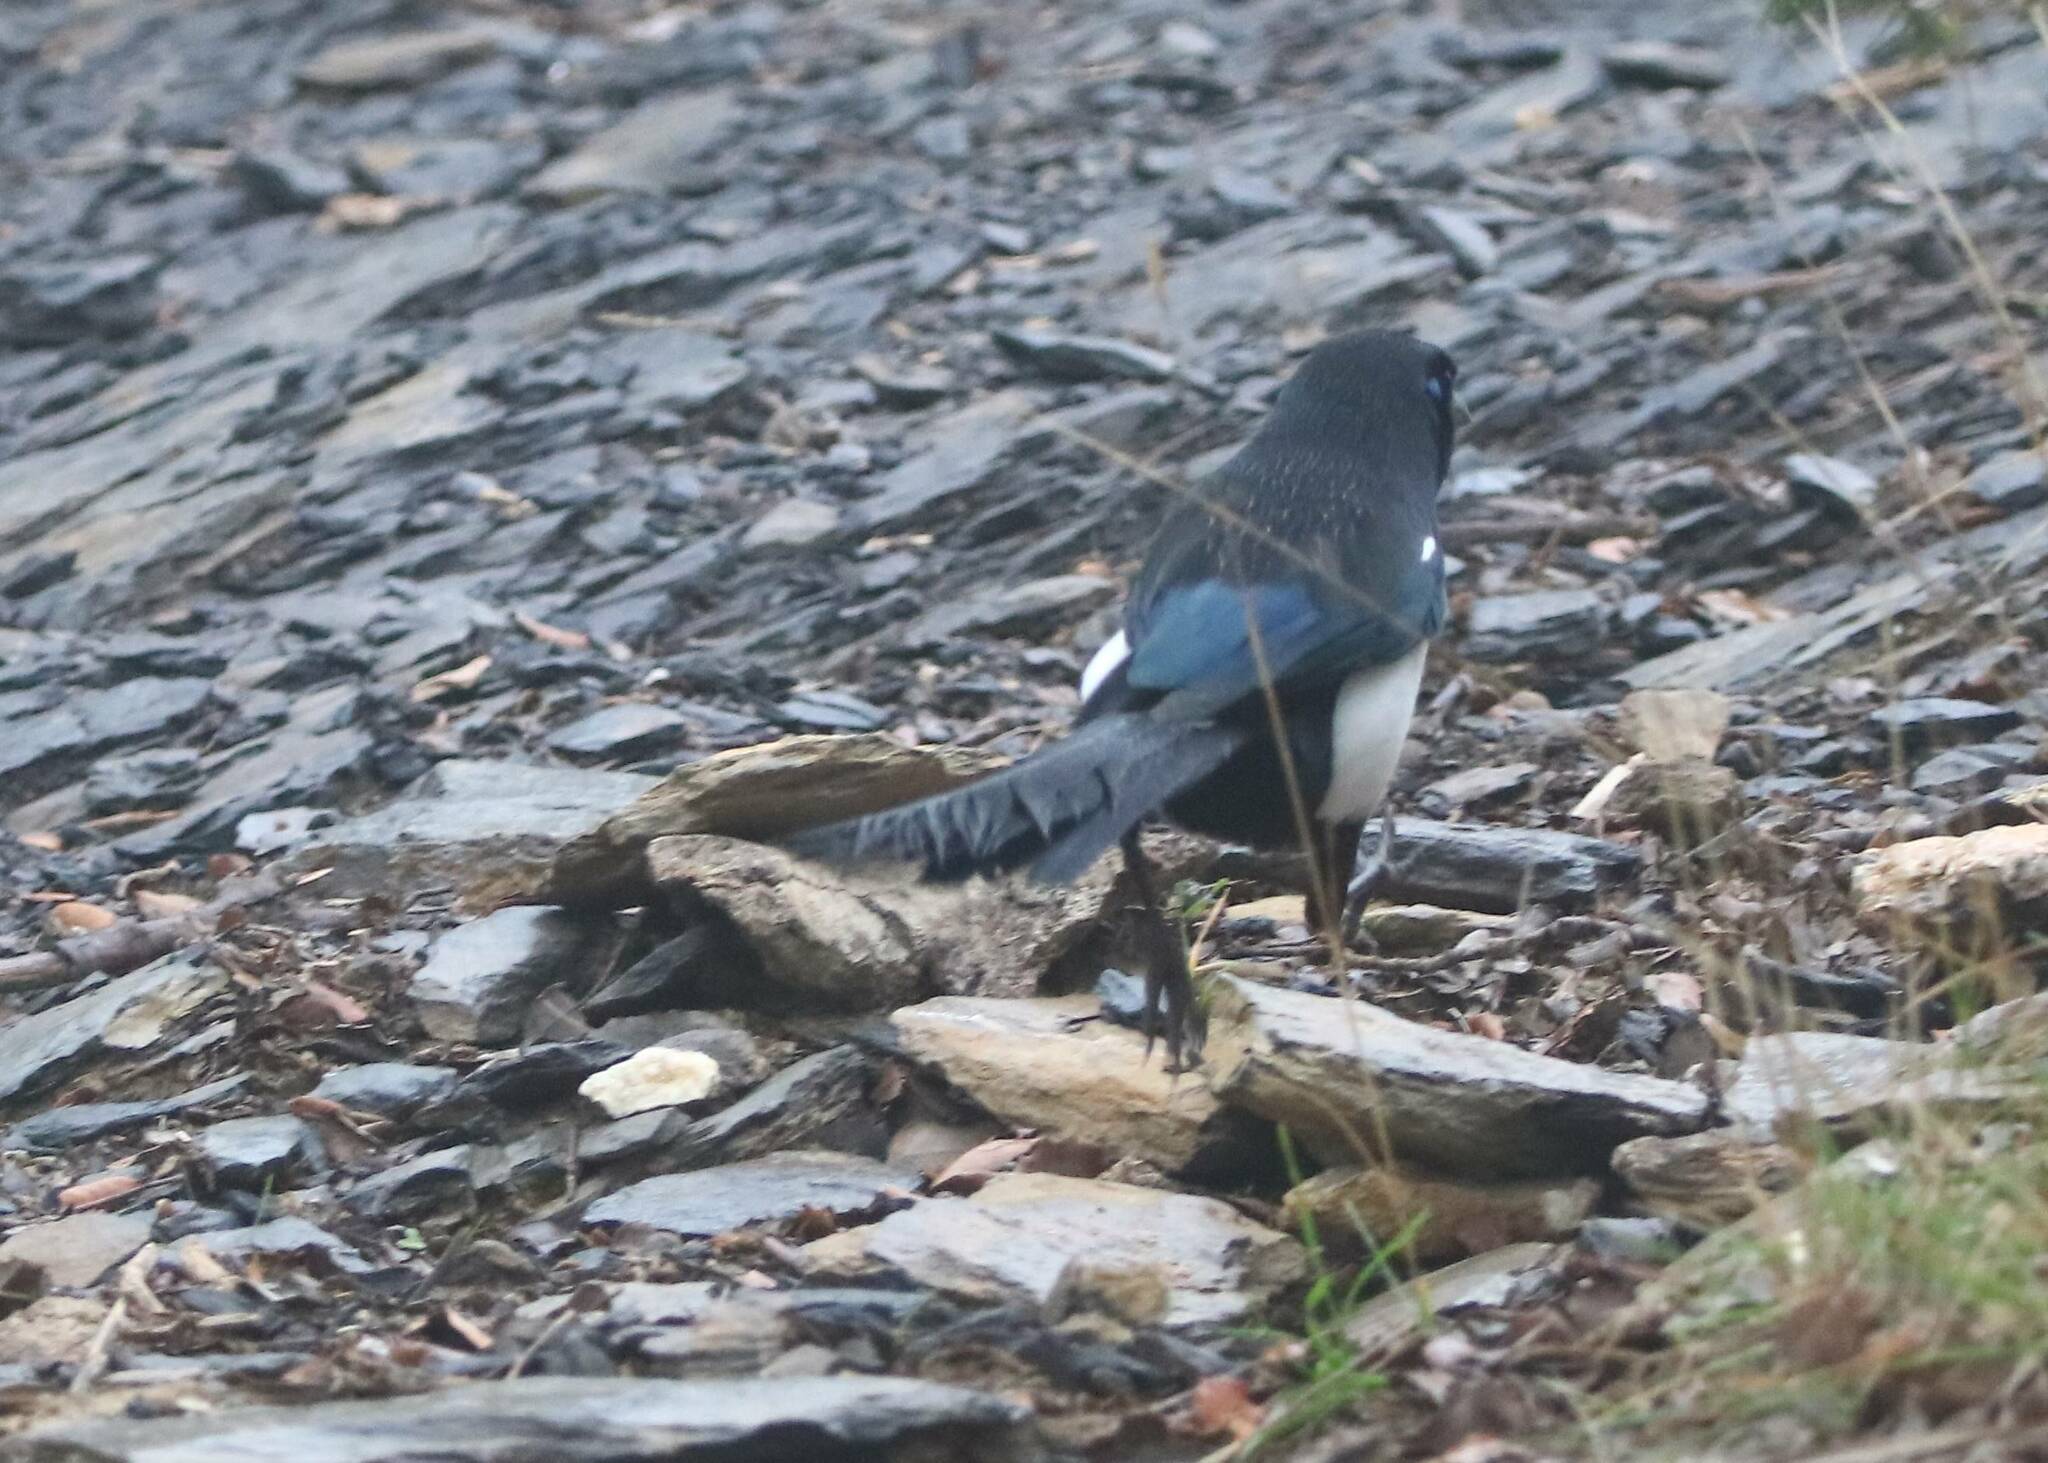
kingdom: Animalia
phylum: Chordata
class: Aves
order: Passeriformes
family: Corvidae
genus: Pica
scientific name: Pica mauritanica
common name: Maghreb magpie
